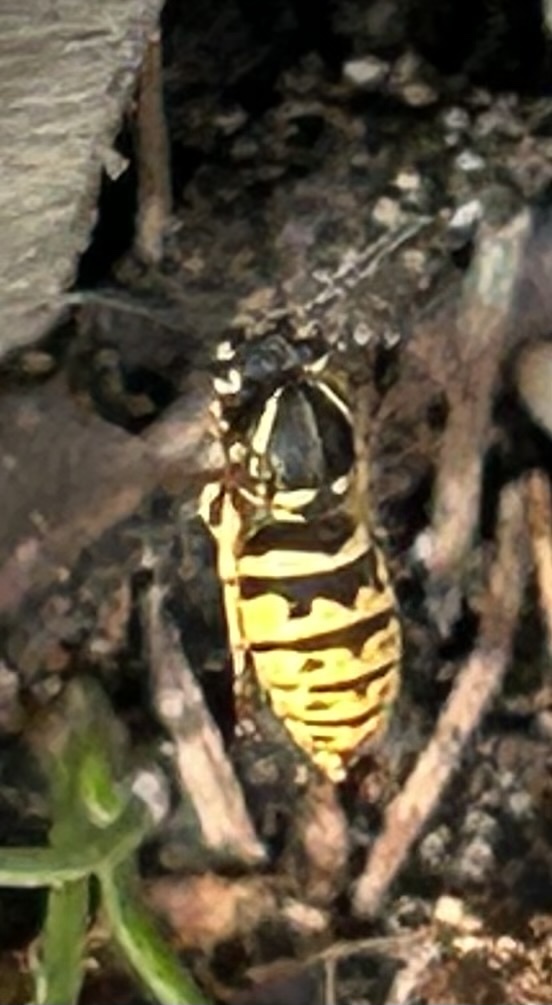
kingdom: Animalia
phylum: Arthropoda
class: Insecta
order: Hymenoptera
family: Vespidae
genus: Vespula
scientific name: Vespula vulgaris
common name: Common wasp
